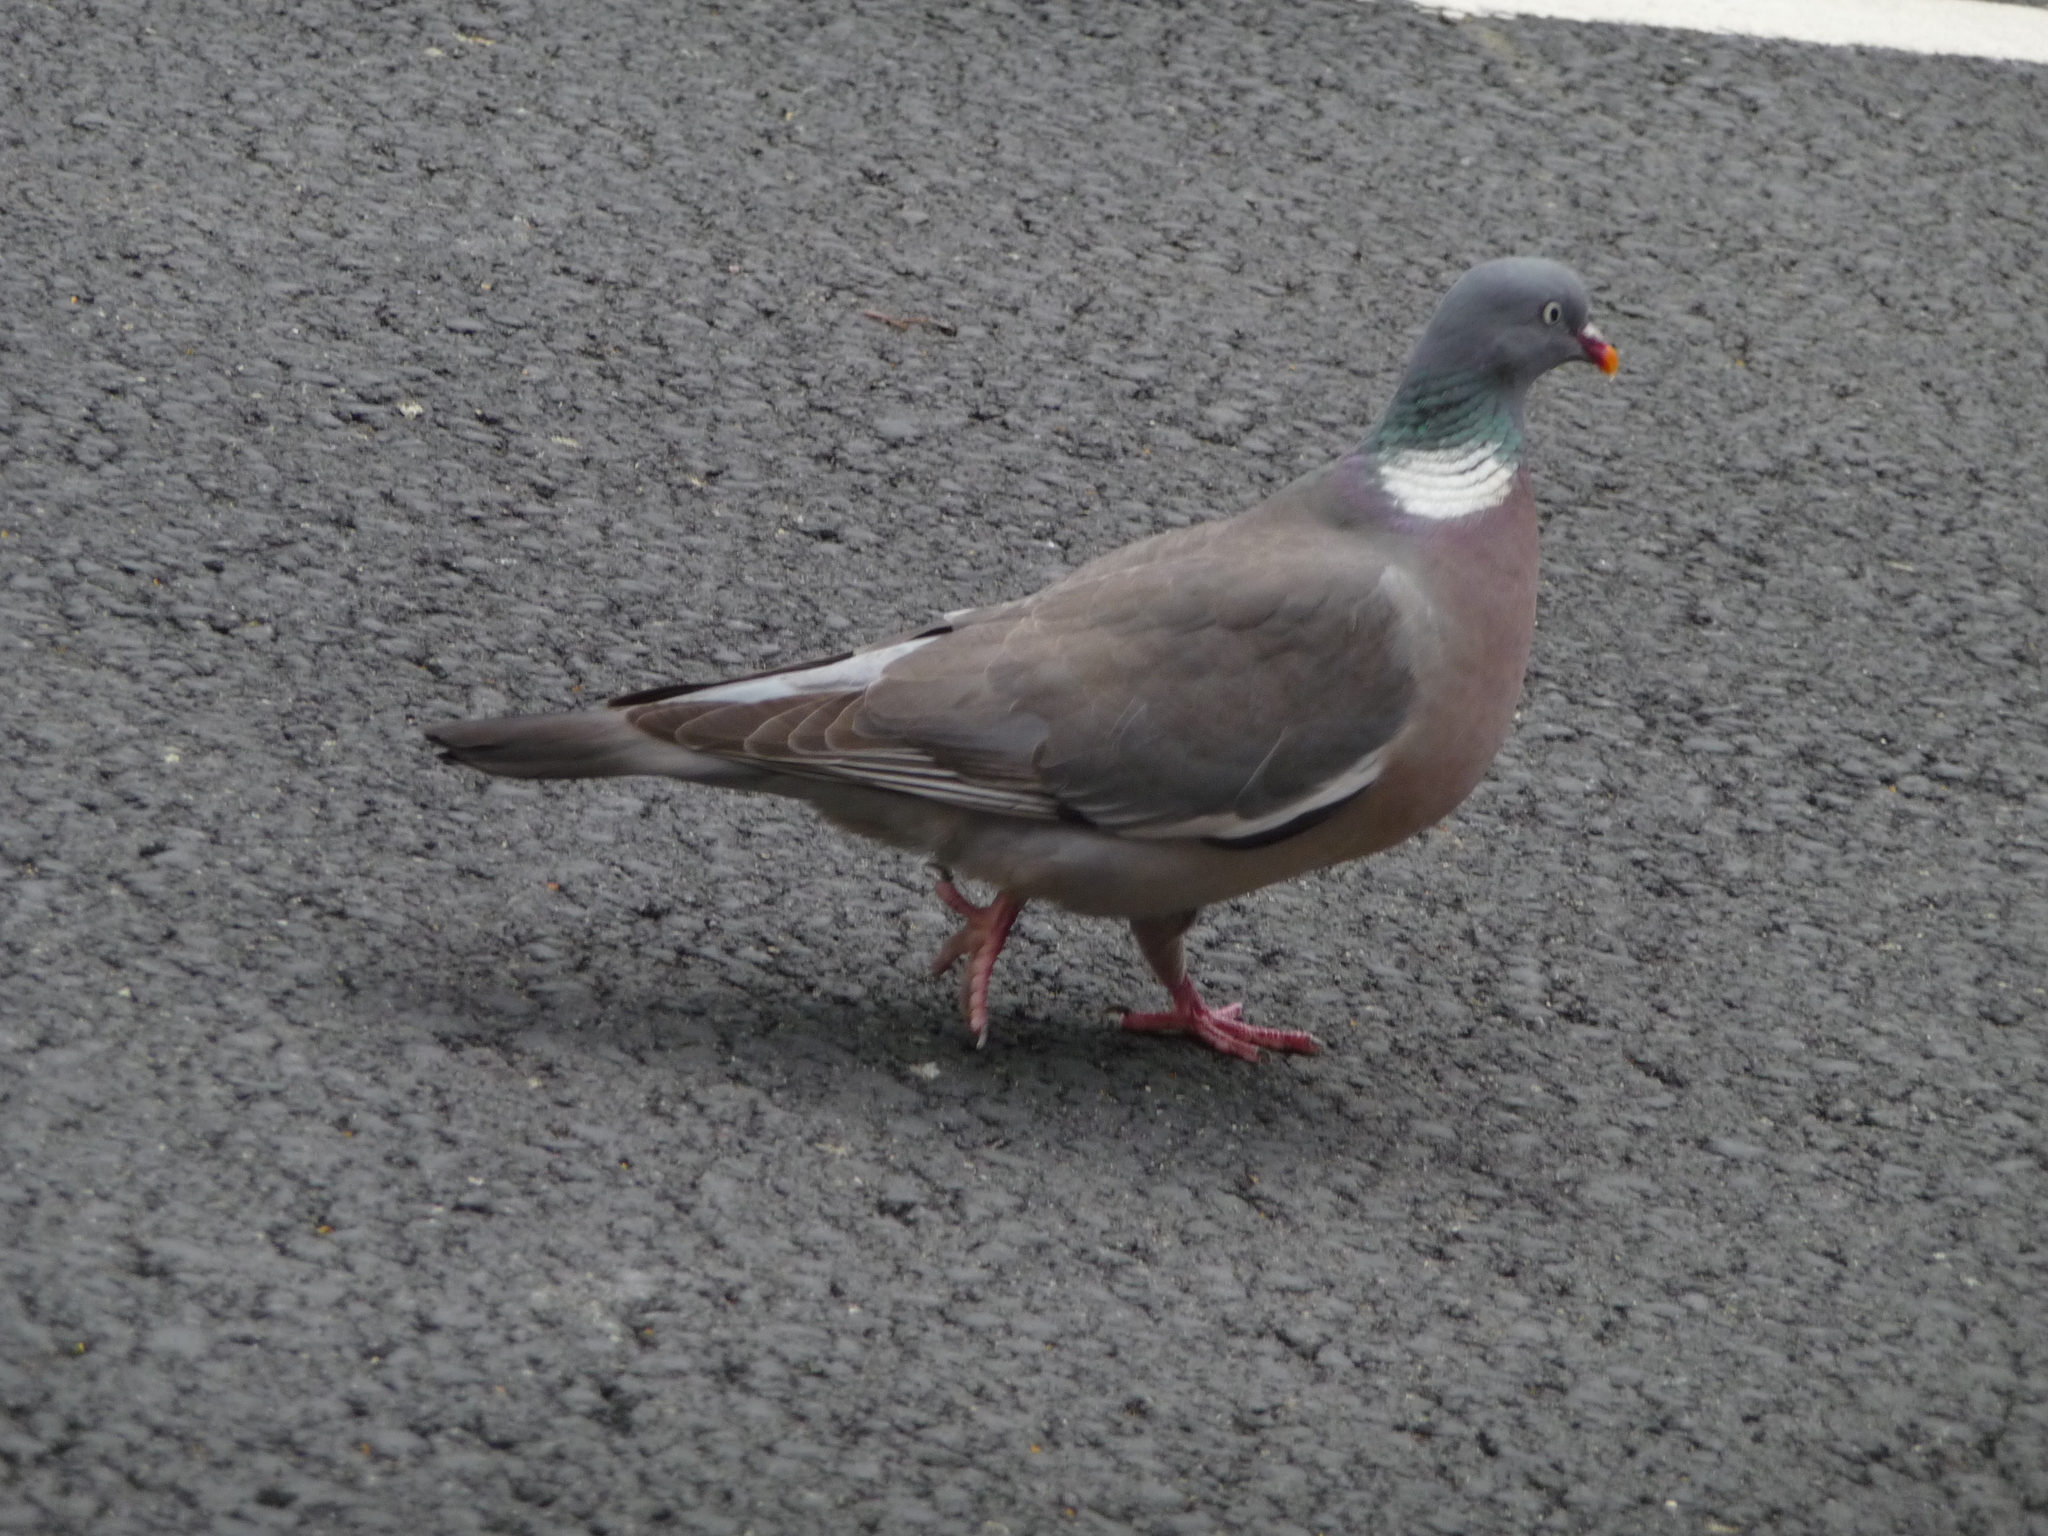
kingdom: Animalia
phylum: Chordata
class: Aves
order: Columbiformes
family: Columbidae
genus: Columba
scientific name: Columba palumbus
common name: Common wood pigeon
